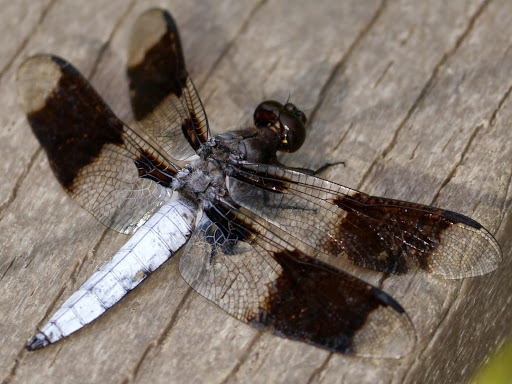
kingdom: Animalia
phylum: Arthropoda
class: Insecta
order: Odonata
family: Libellulidae
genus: Plathemis
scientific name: Plathemis lydia
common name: Common whitetail
